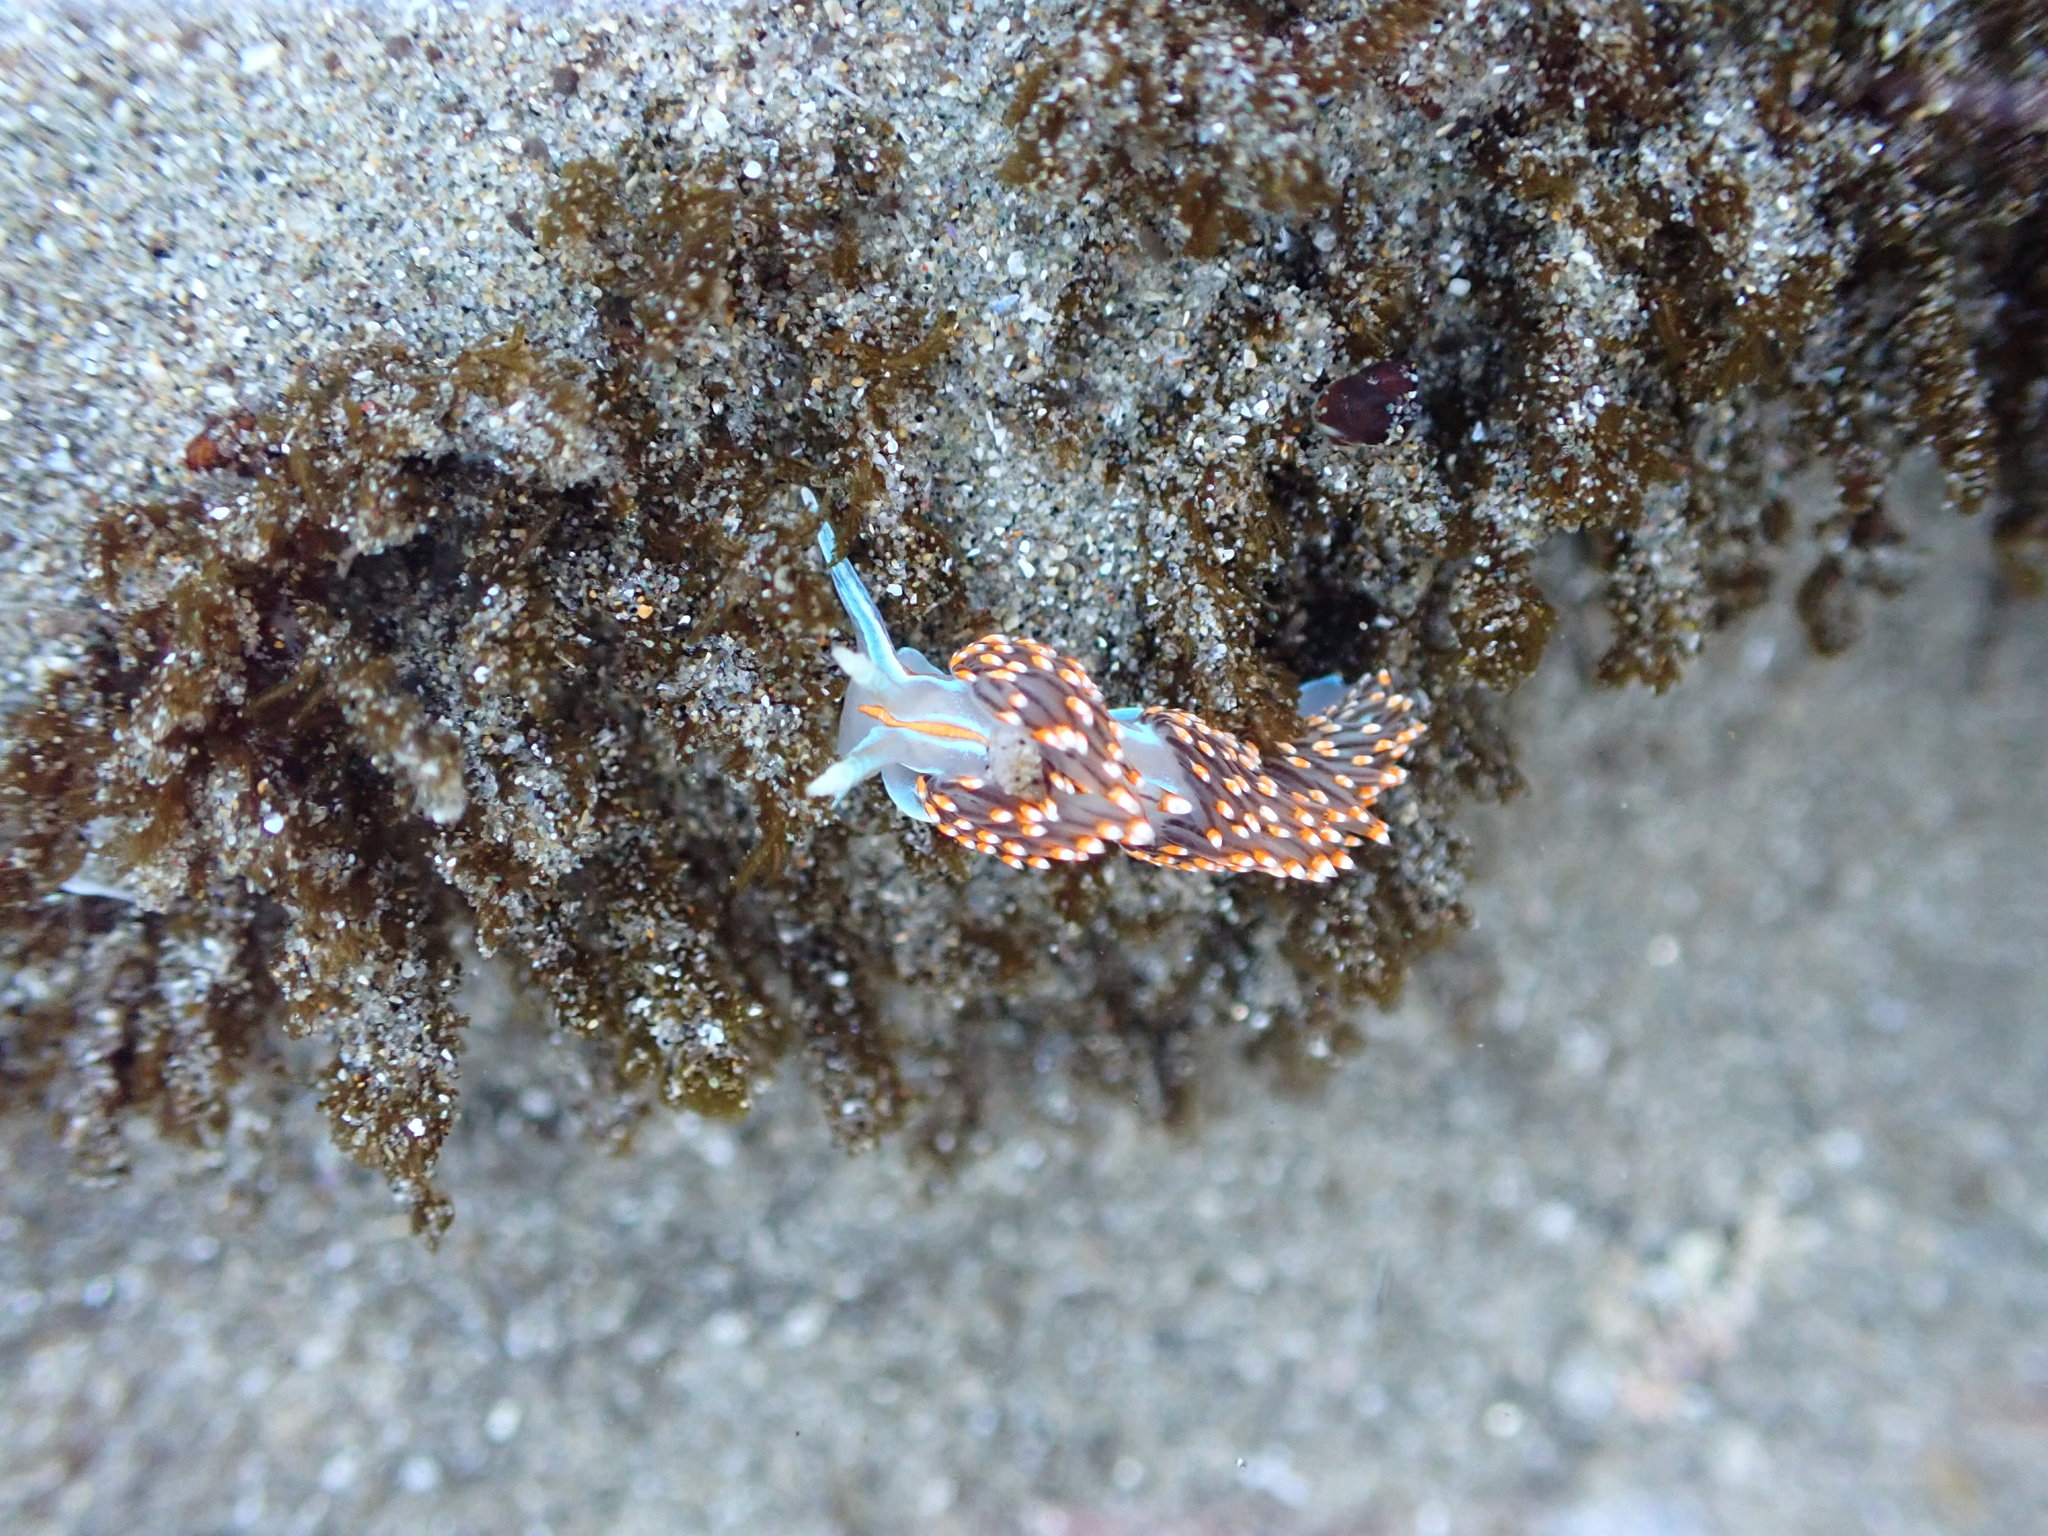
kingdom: Animalia
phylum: Mollusca
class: Gastropoda
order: Nudibranchia
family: Myrrhinidae
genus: Hermissenda
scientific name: Hermissenda opalescens
